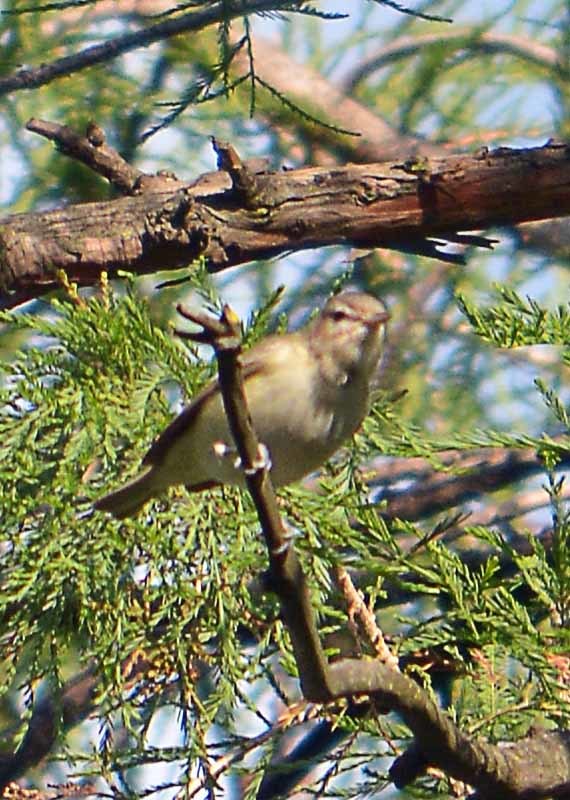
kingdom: Animalia
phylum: Chordata
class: Aves
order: Passeriformes
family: Vireonidae
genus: Vireo
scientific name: Vireo gilvus
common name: Warbling vireo
